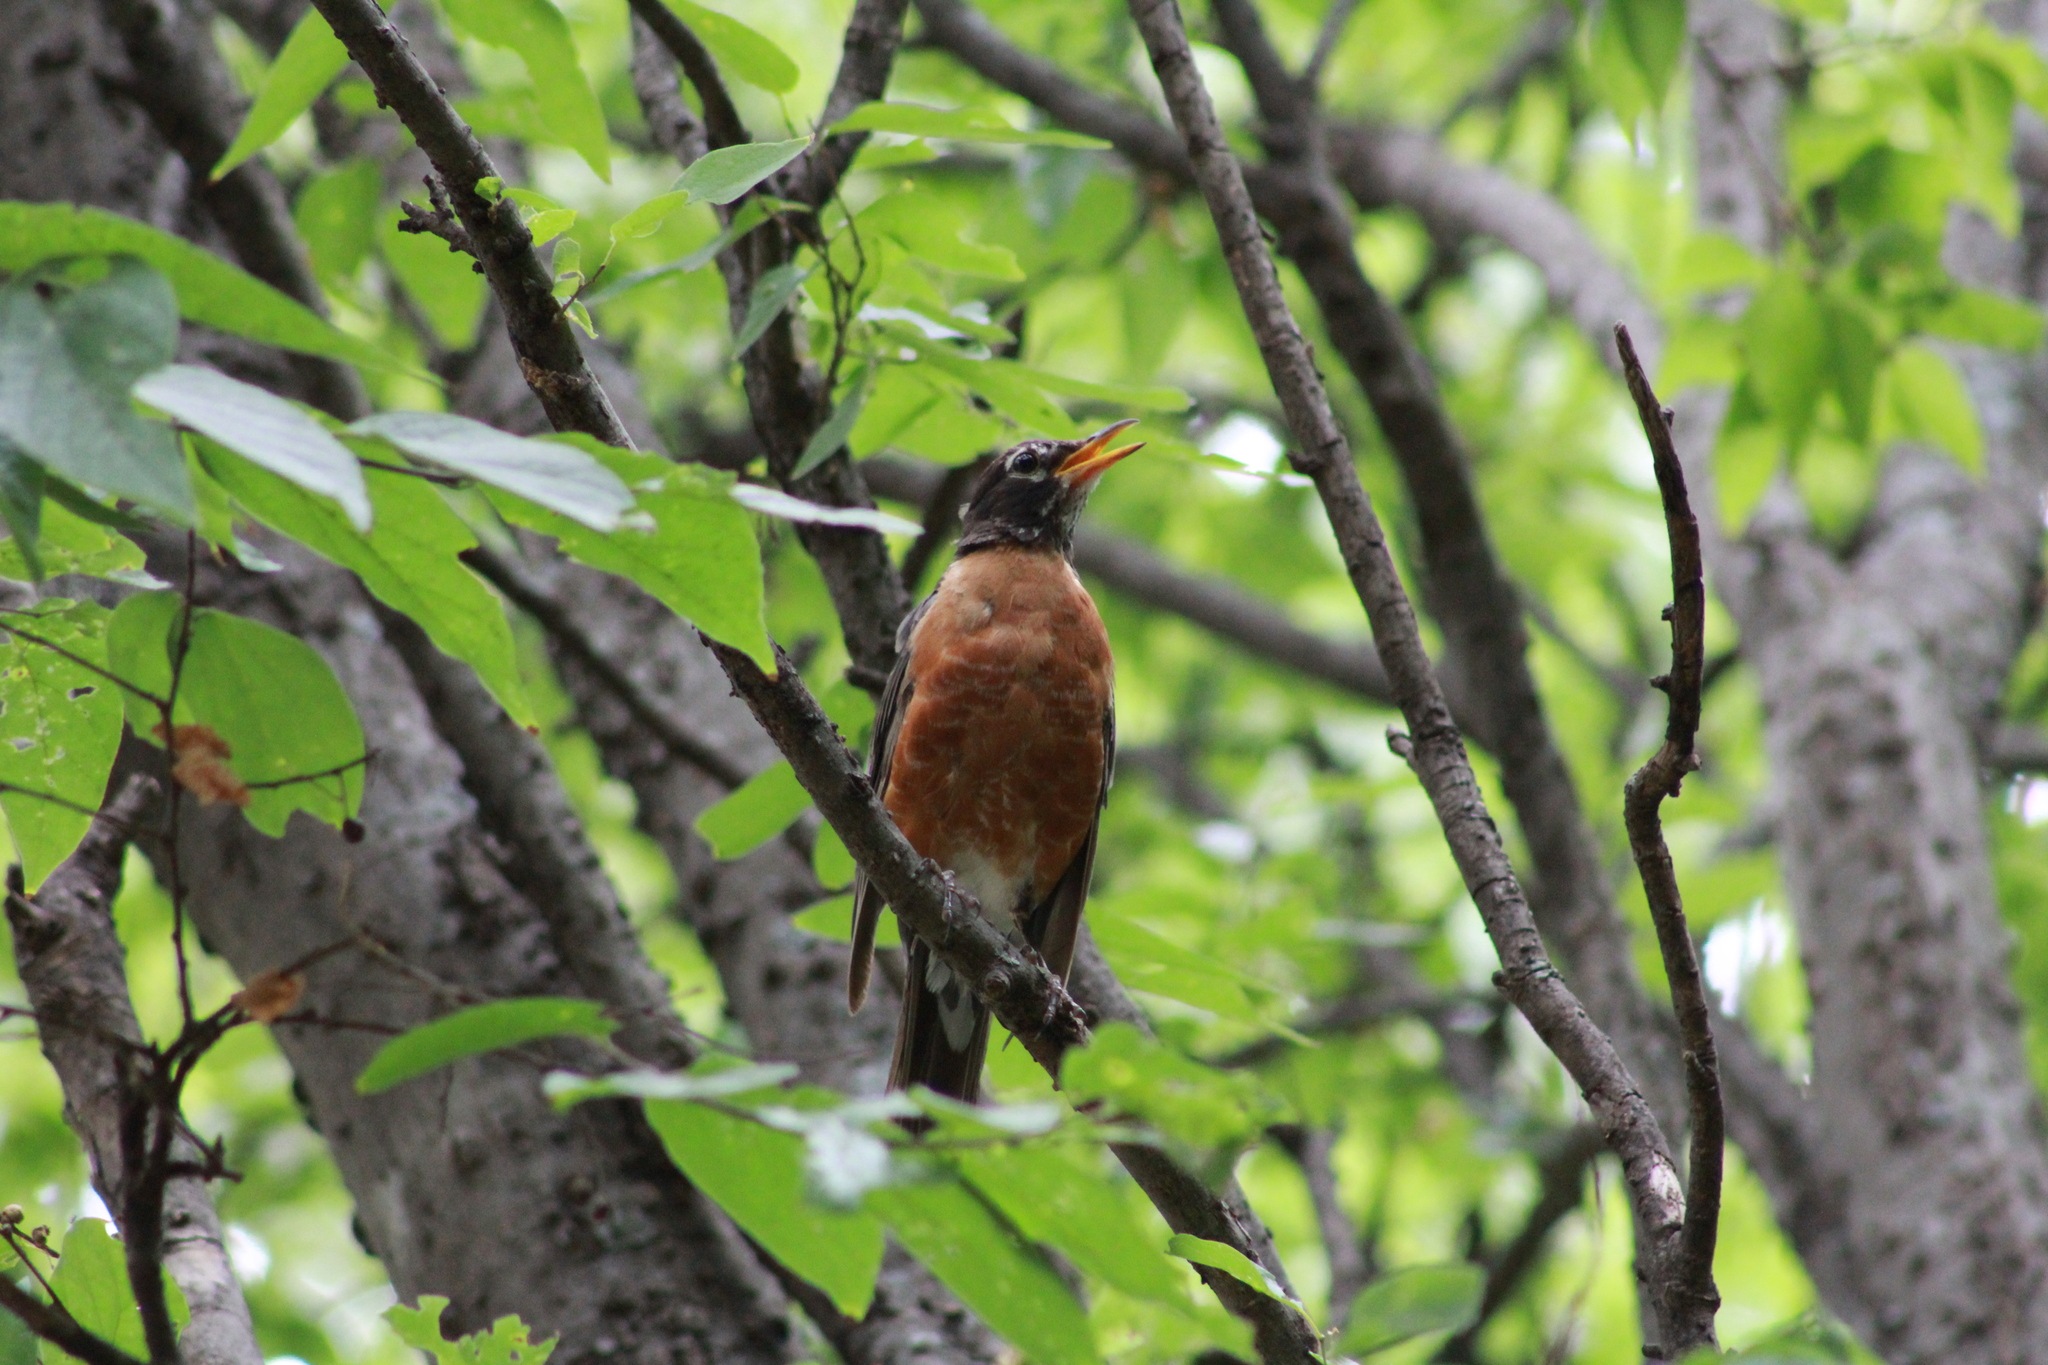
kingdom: Animalia
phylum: Chordata
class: Aves
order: Passeriformes
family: Turdidae
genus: Turdus
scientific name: Turdus migratorius
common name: American robin
